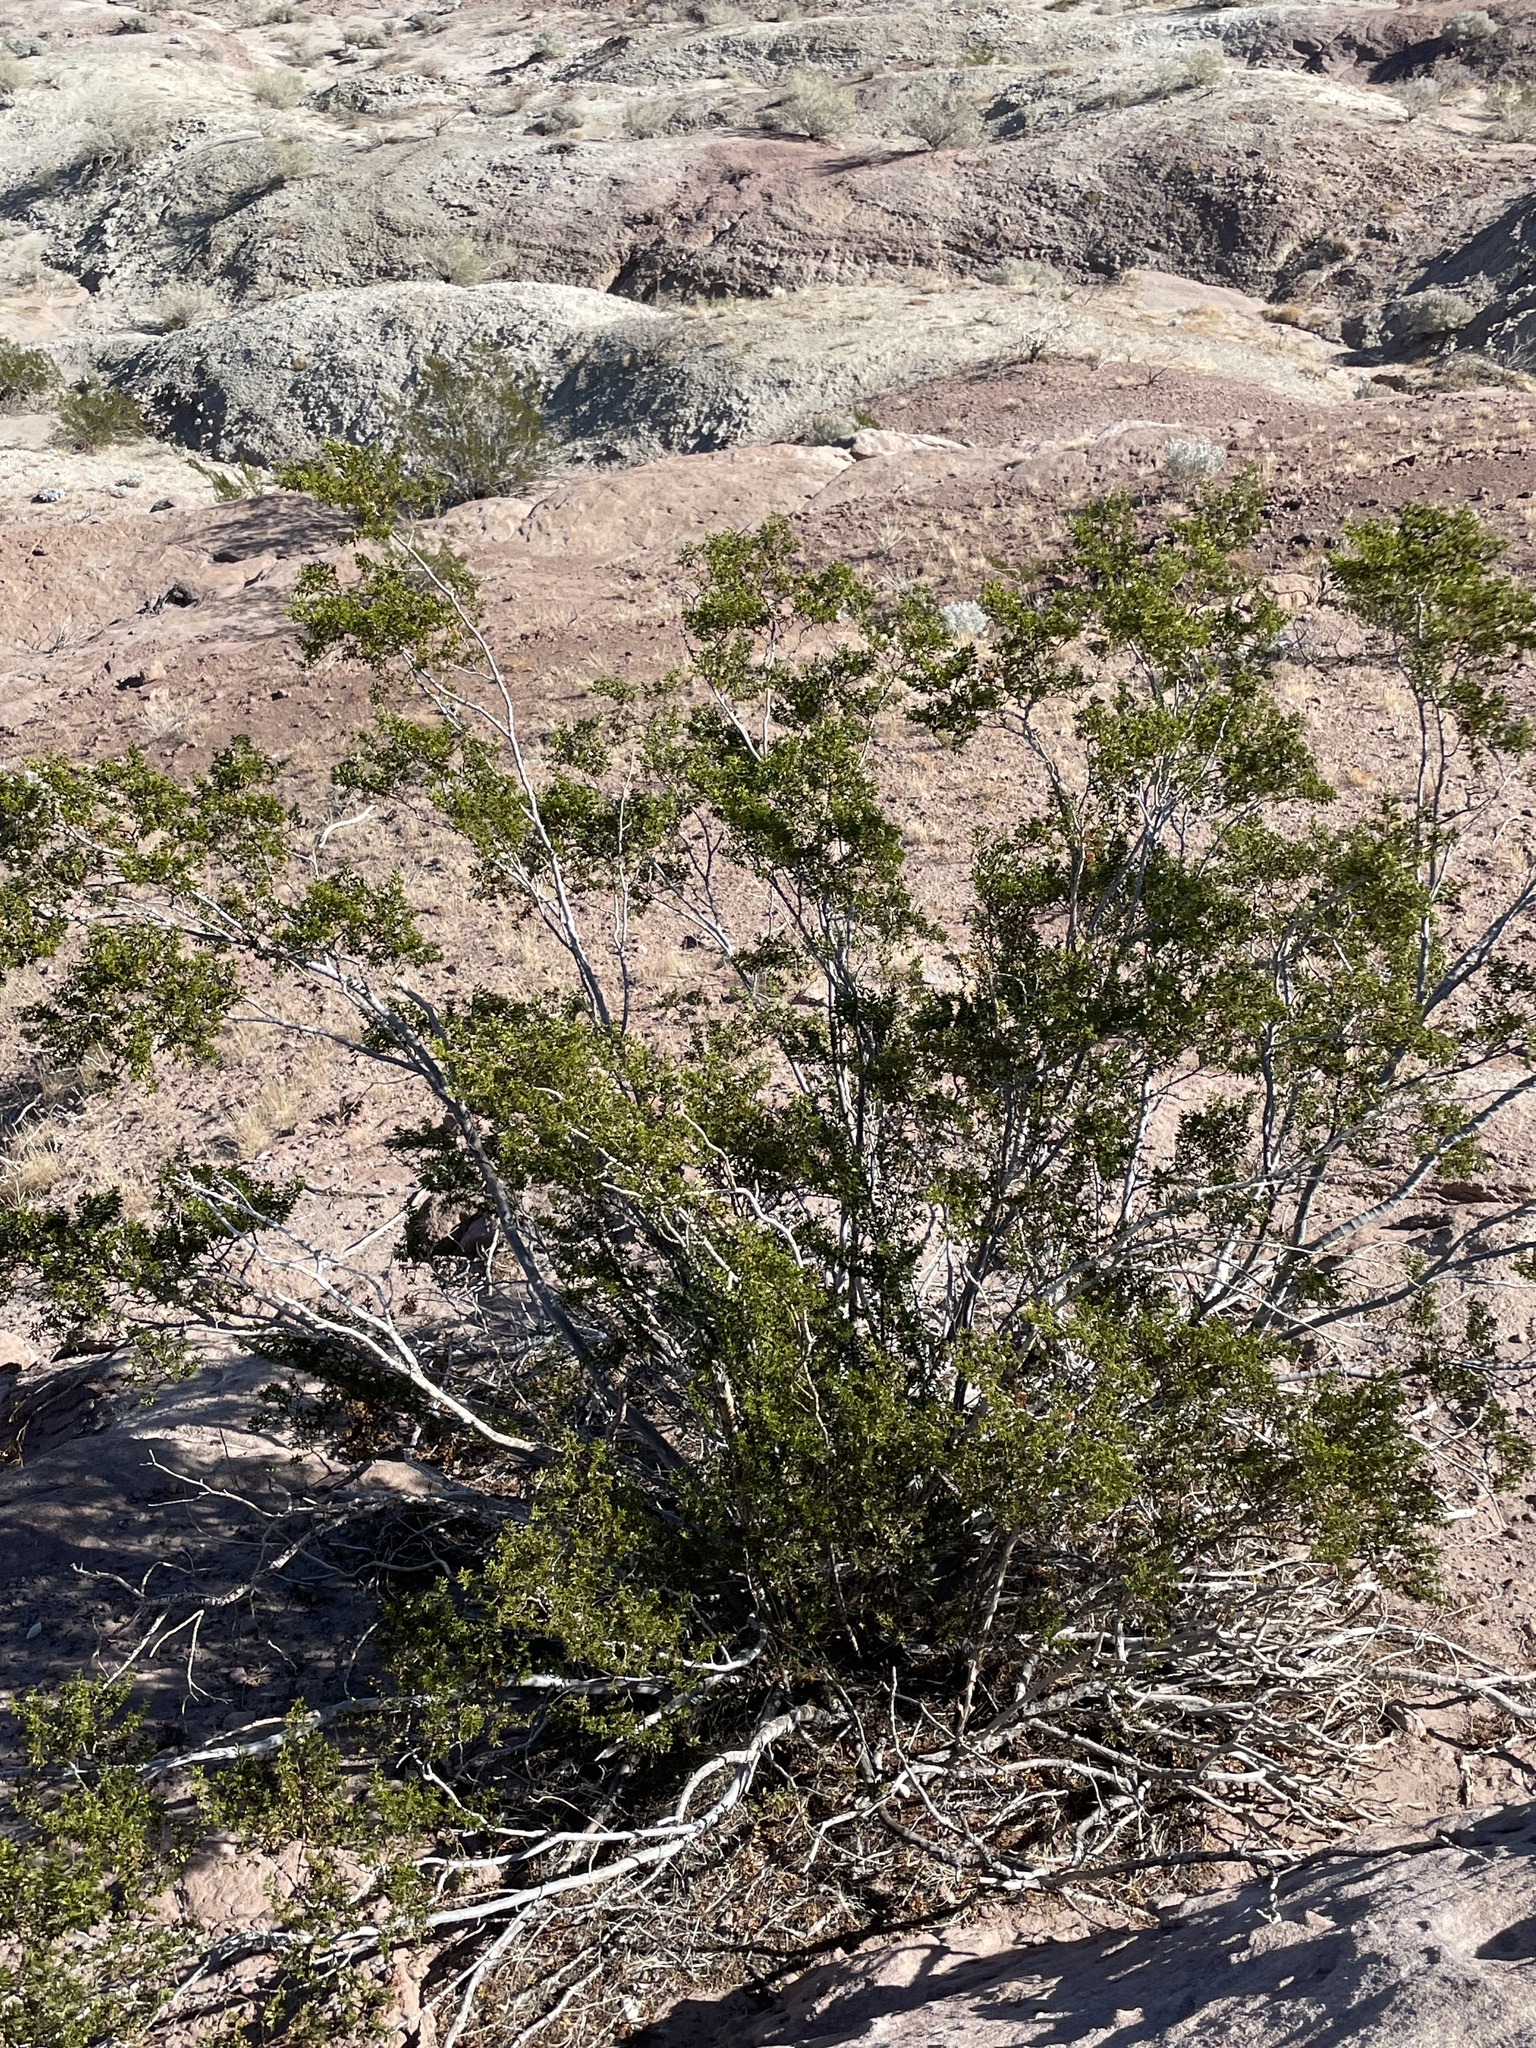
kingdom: Plantae
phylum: Tracheophyta
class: Magnoliopsida
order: Zygophyllales
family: Zygophyllaceae
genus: Larrea
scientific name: Larrea tridentata
